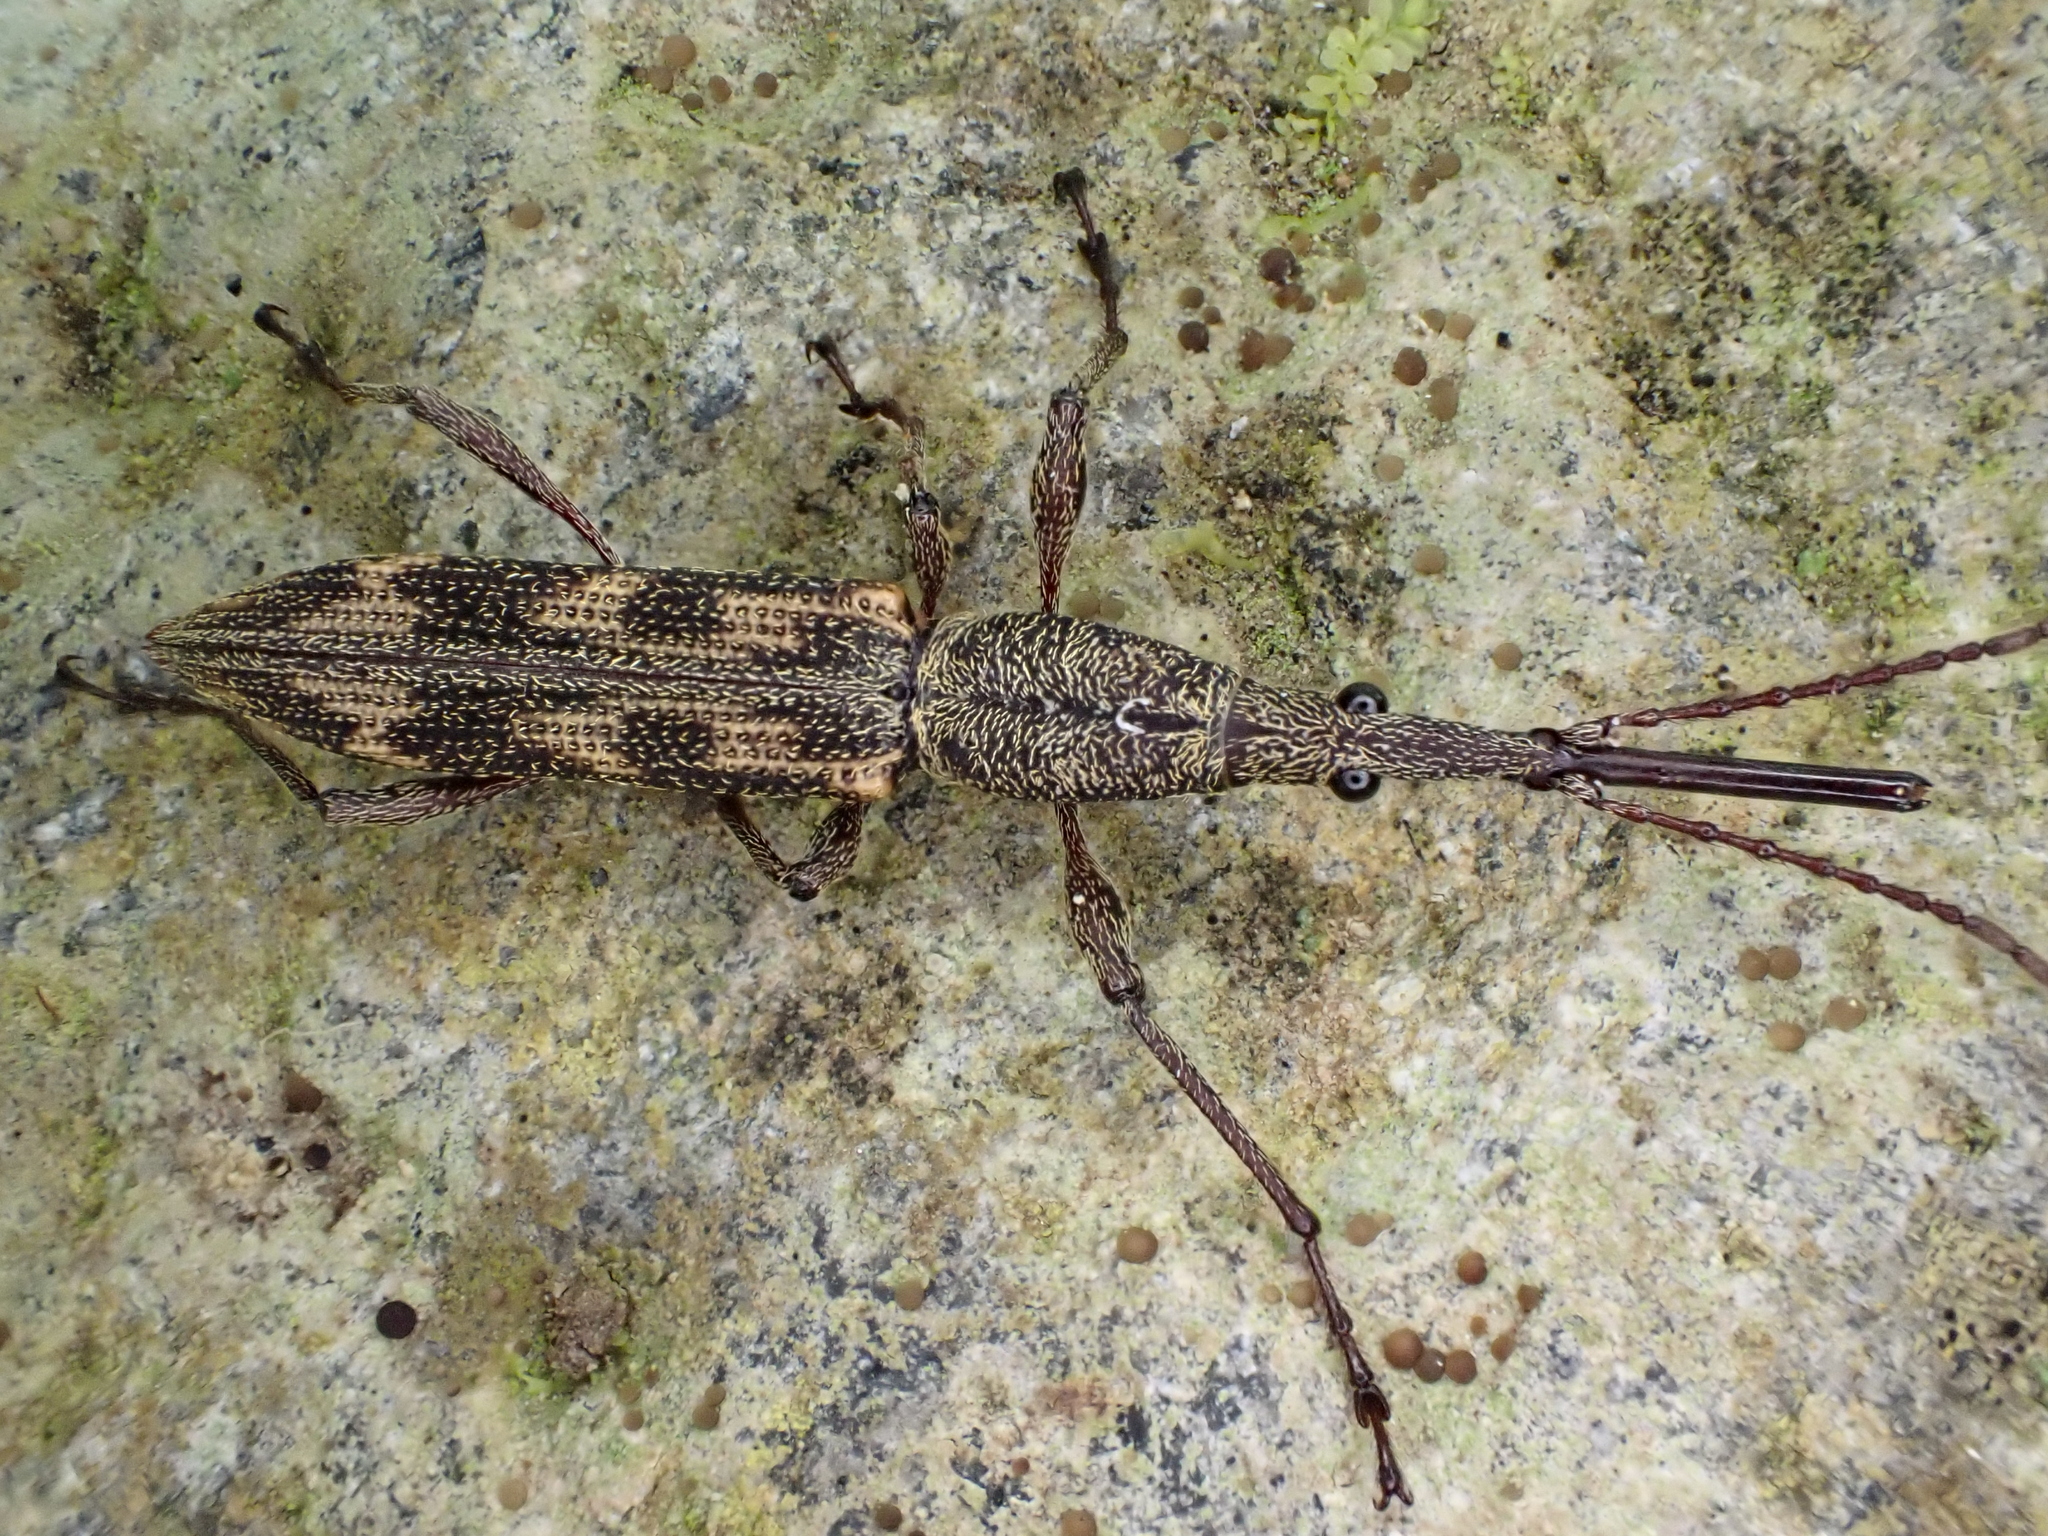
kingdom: Animalia
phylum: Arthropoda
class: Insecta
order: Coleoptera
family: Brentidae
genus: Lasiorhynchus
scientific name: Lasiorhynchus barbicornis
